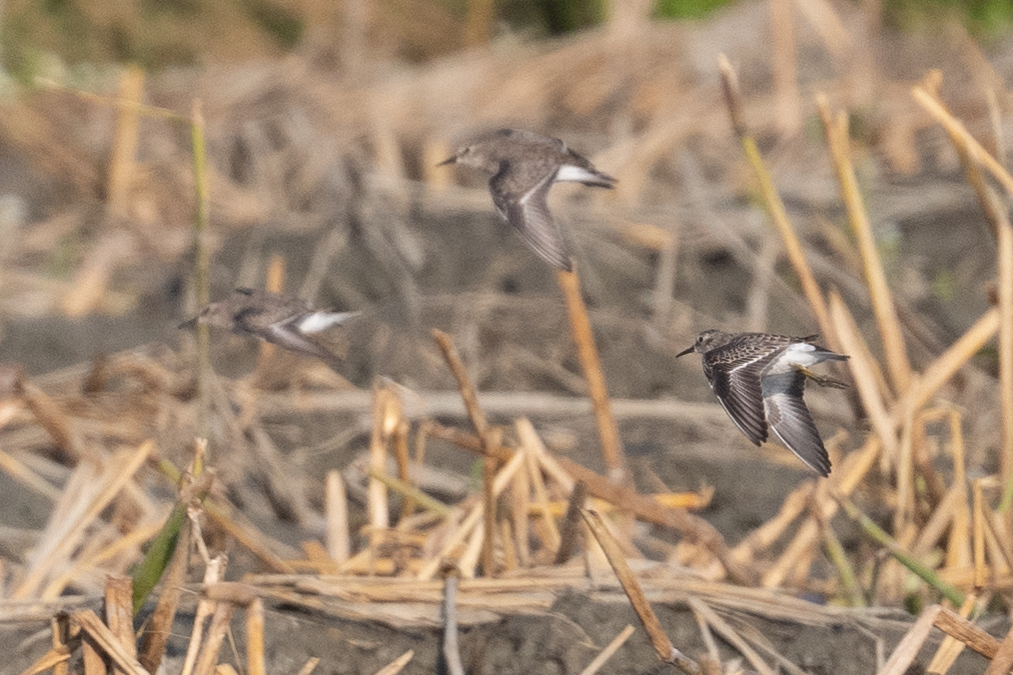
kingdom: Animalia
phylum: Chordata
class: Aves
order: Charadriiformes
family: Scolopacidae
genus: Calidris
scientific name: Calidris minutilla
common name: Least sandpiper
